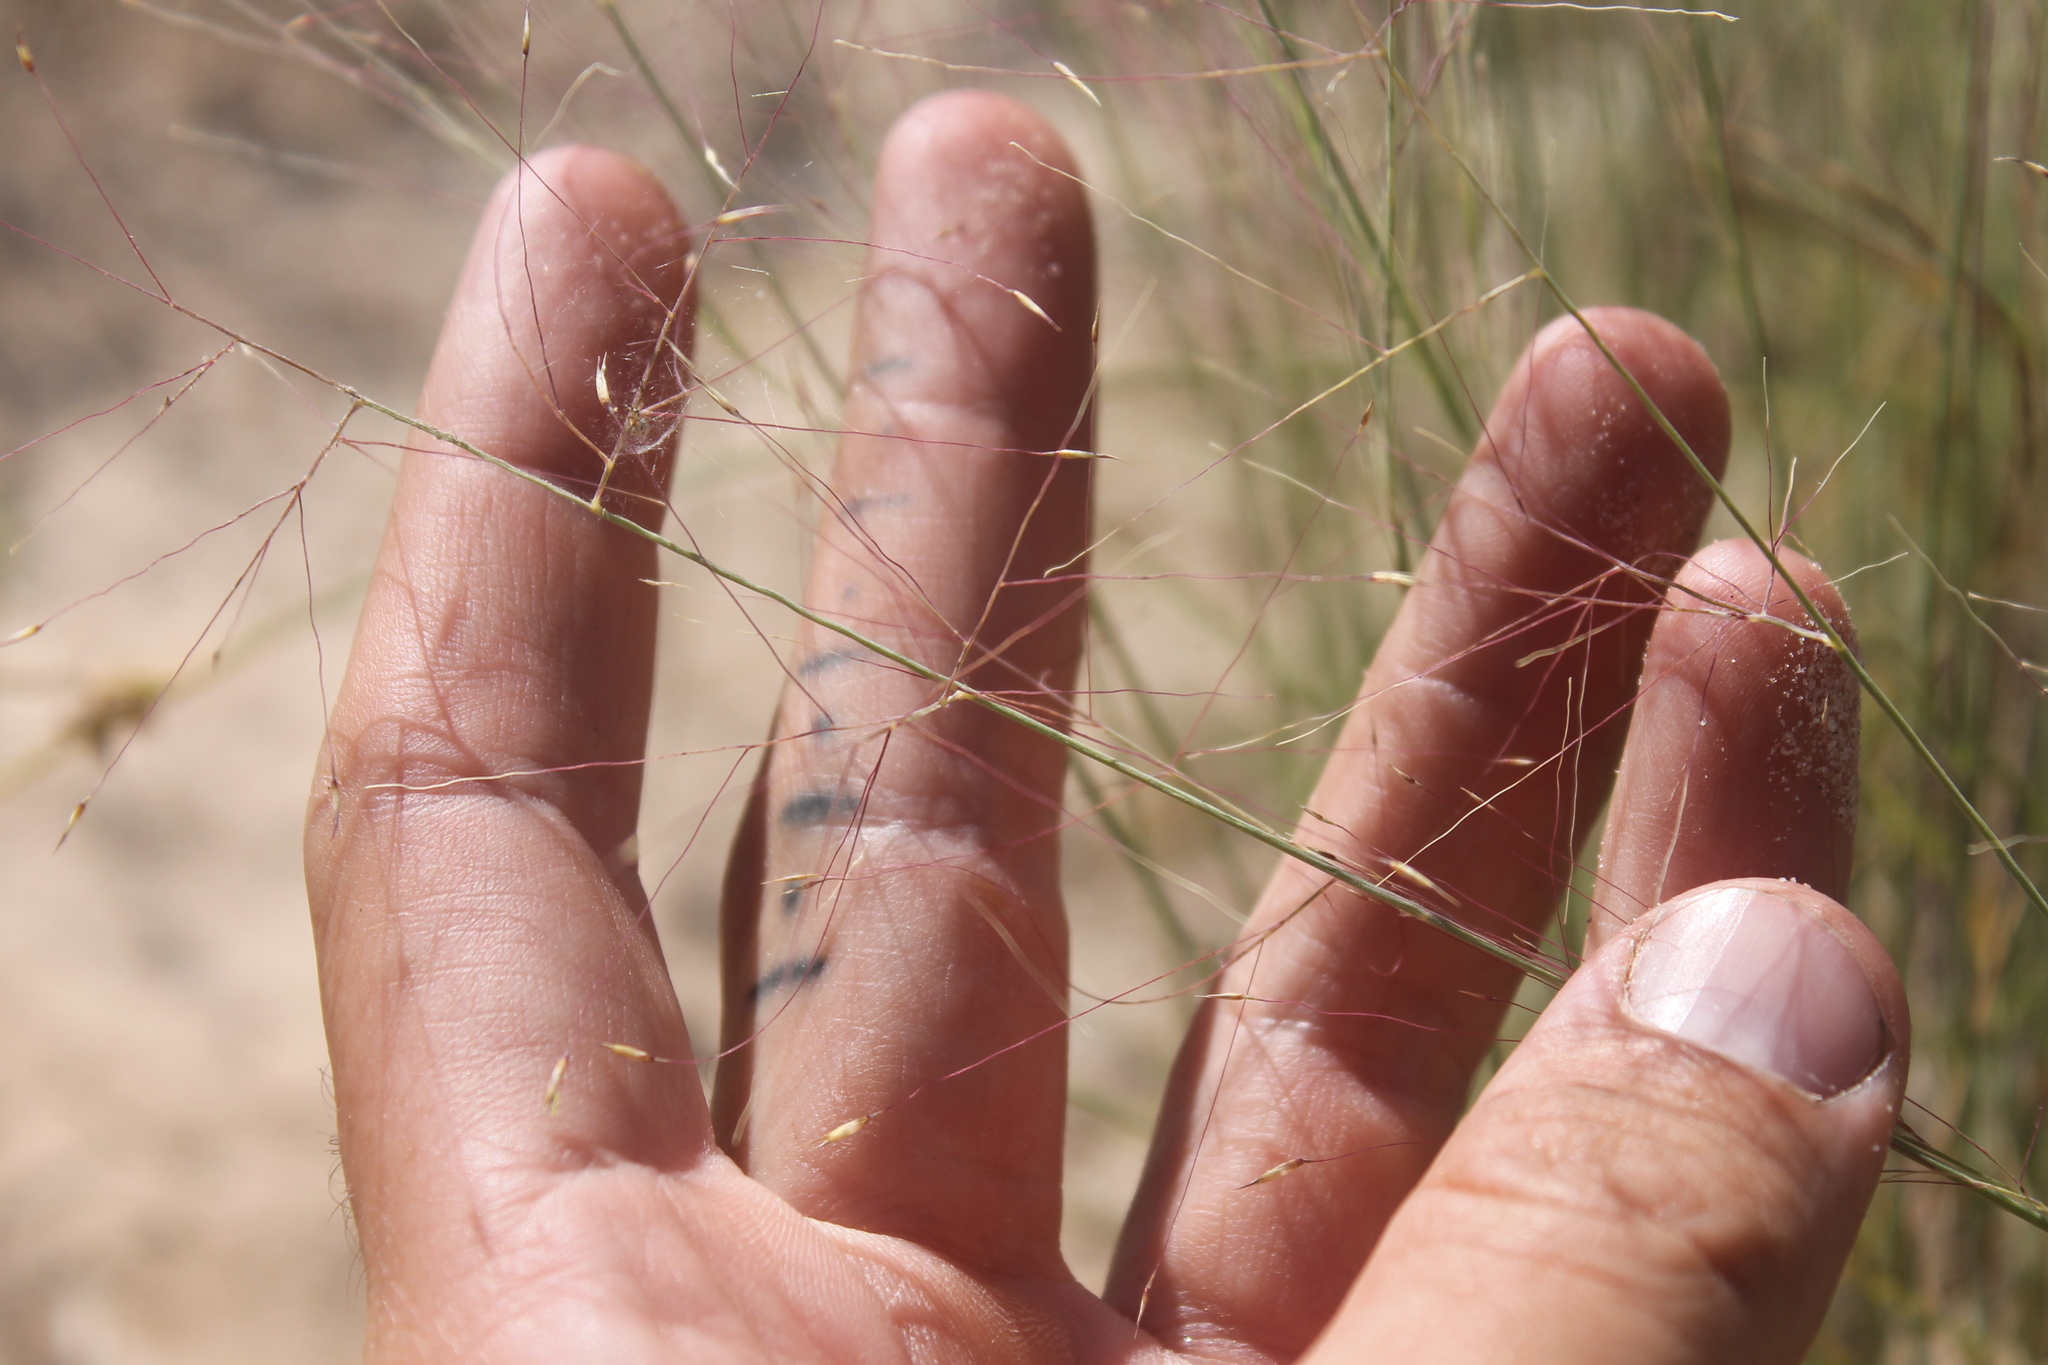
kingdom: Plantae
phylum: Tracheophyta
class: Liliopsida
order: Poales
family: Poaceae
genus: Muhlenbergia
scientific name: Muhlenbergia pungens
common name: Sandhill muhly
